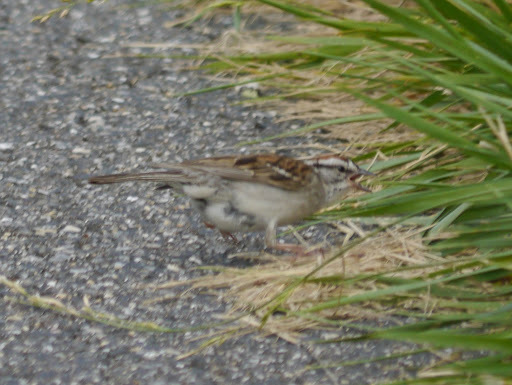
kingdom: Animalia
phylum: Chordata
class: Aves
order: Passeriformes
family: Passerellidae
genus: Spizella
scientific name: Spizella passerina
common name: Chipping sparrow
